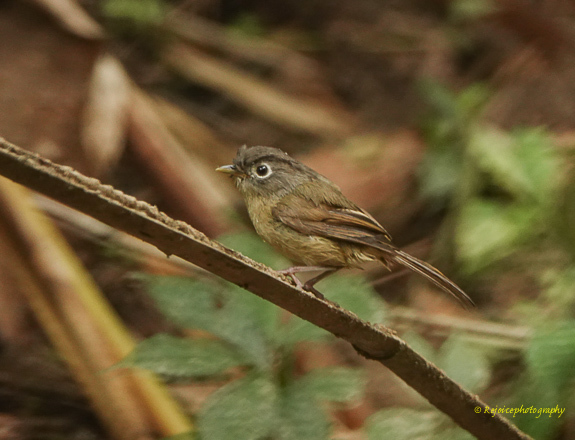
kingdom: Animalia
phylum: Chordata
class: Aves
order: Passeriformes
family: Pellorneidae
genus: Alcippe
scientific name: Alcippe nipalensis
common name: Nepal fulvetta
